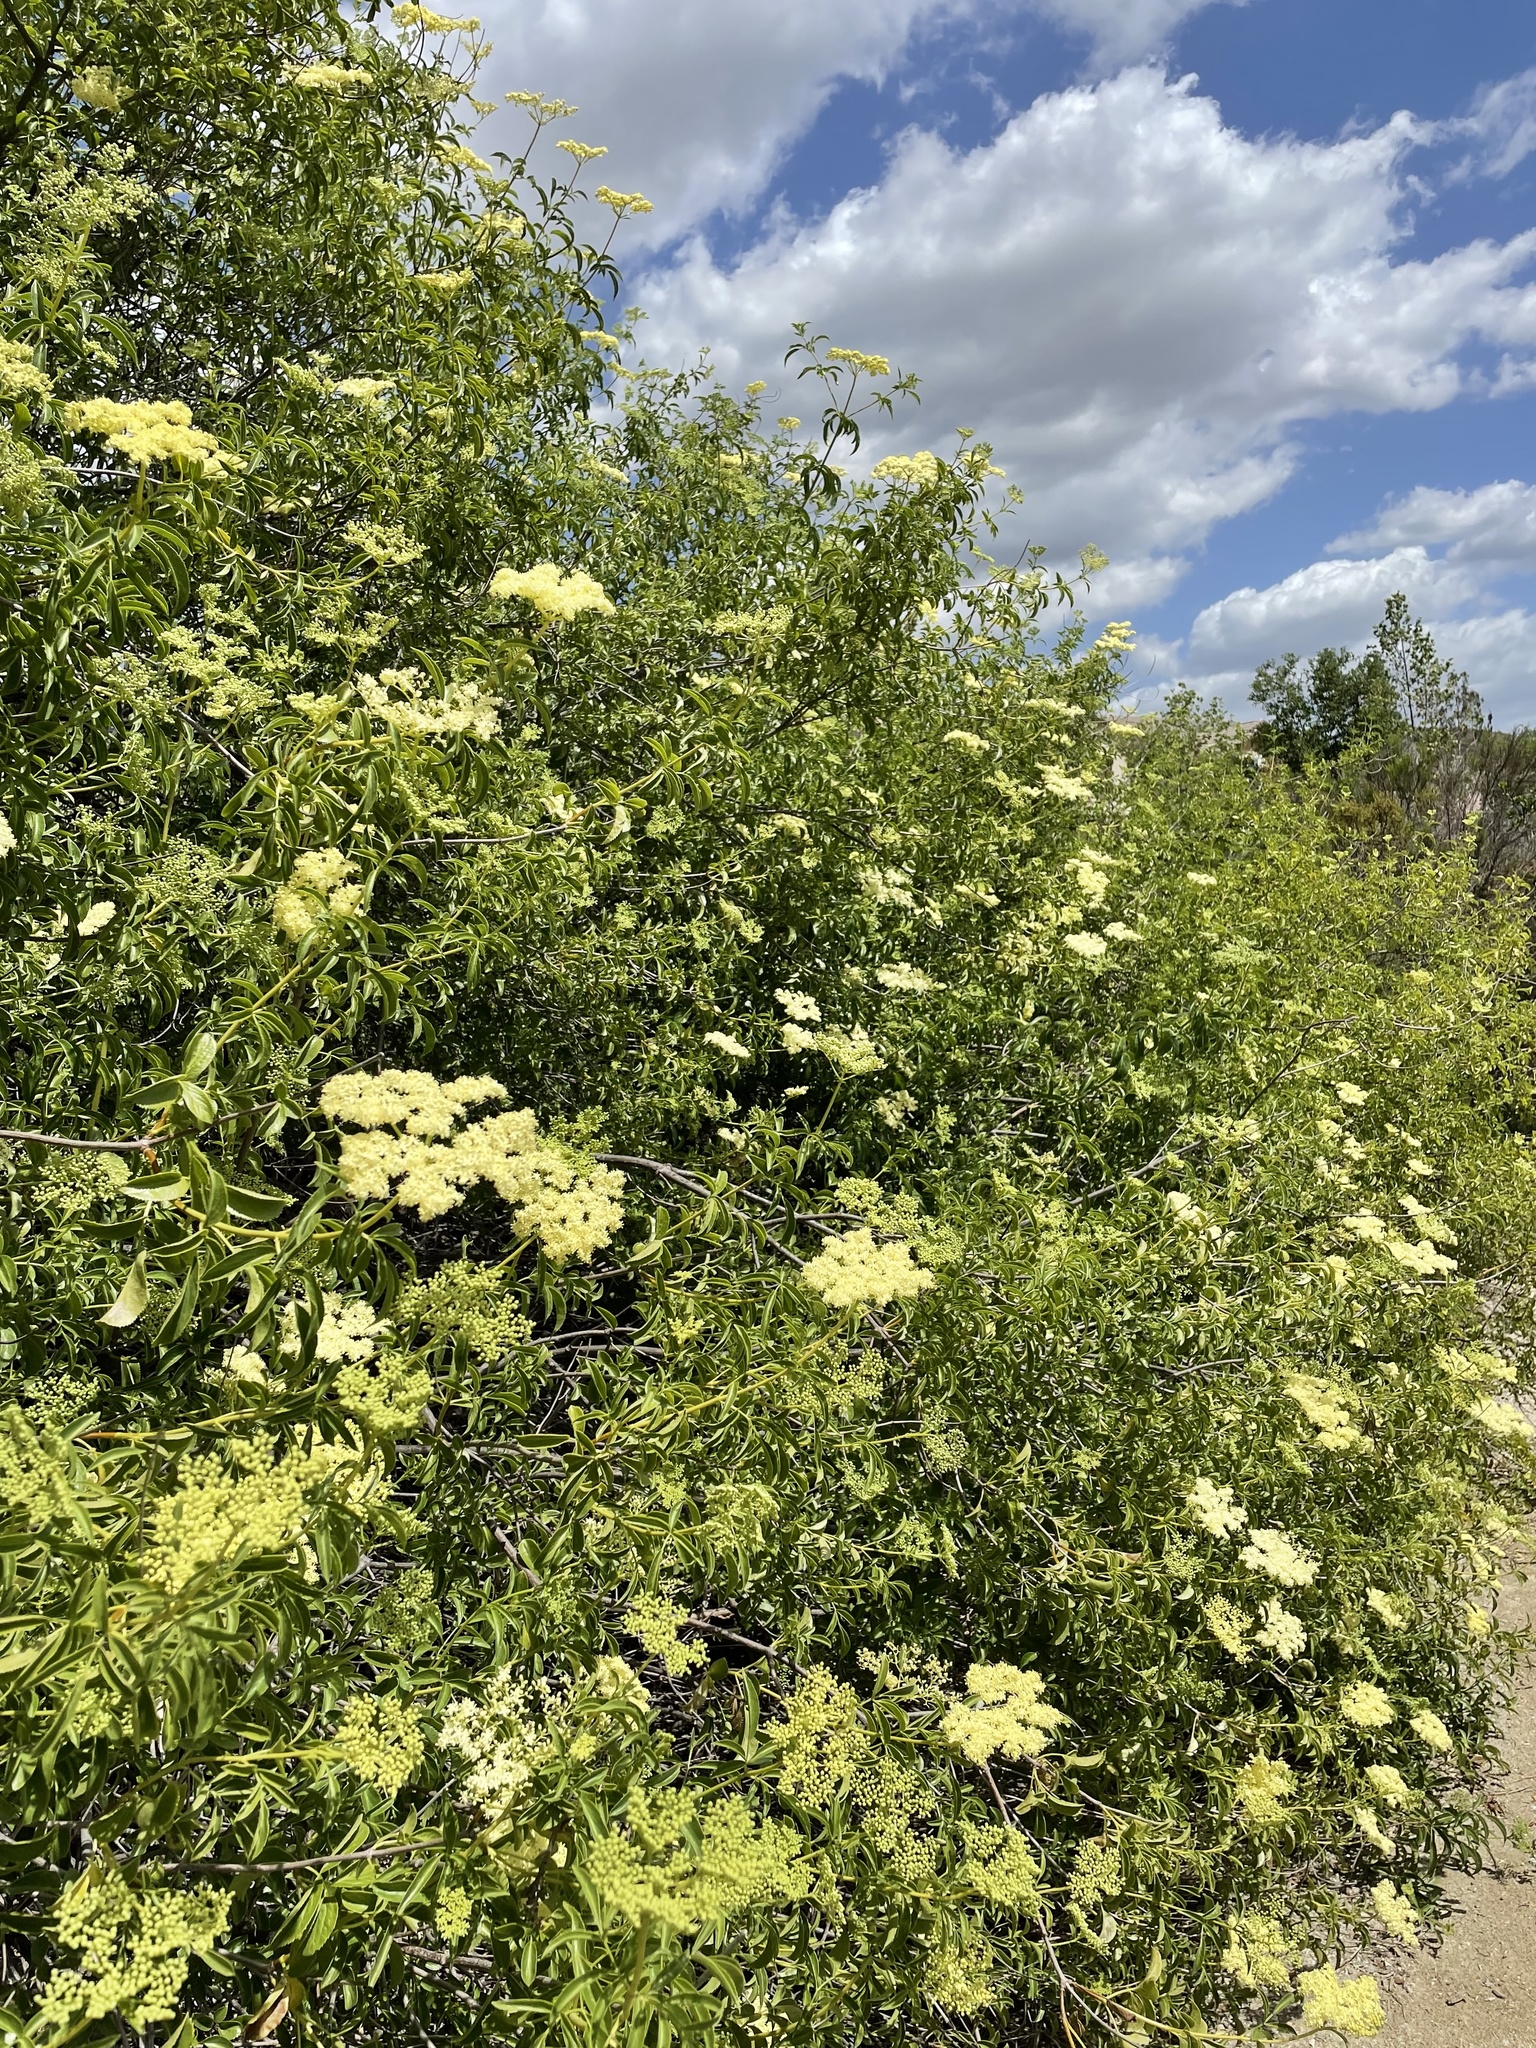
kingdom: Plantae
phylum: Tracheophyta
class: Magnoliopsida
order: Dipsacales
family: Viburnaceae
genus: Sambucus
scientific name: Sambucus cerulea
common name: Blue elder
